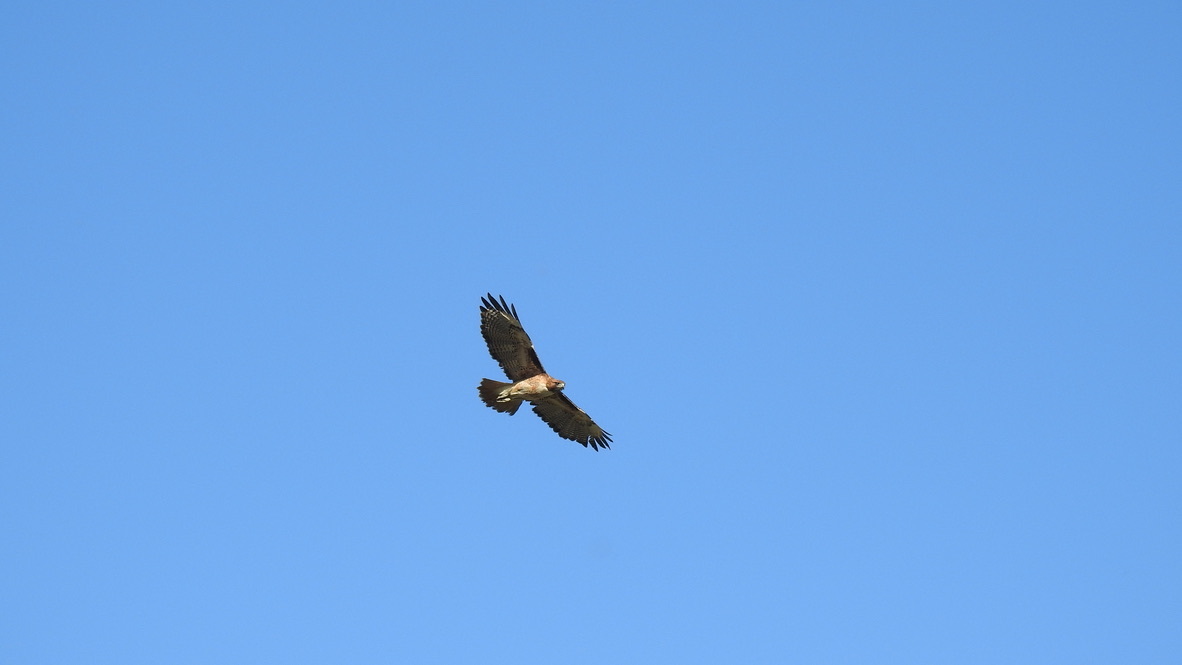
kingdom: Animalia
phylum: Chordata
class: Aves
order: Accipitriformes
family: Accipitridae
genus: Buteo
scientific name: Buteo jamaicensis
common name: Red-tailed hawk
